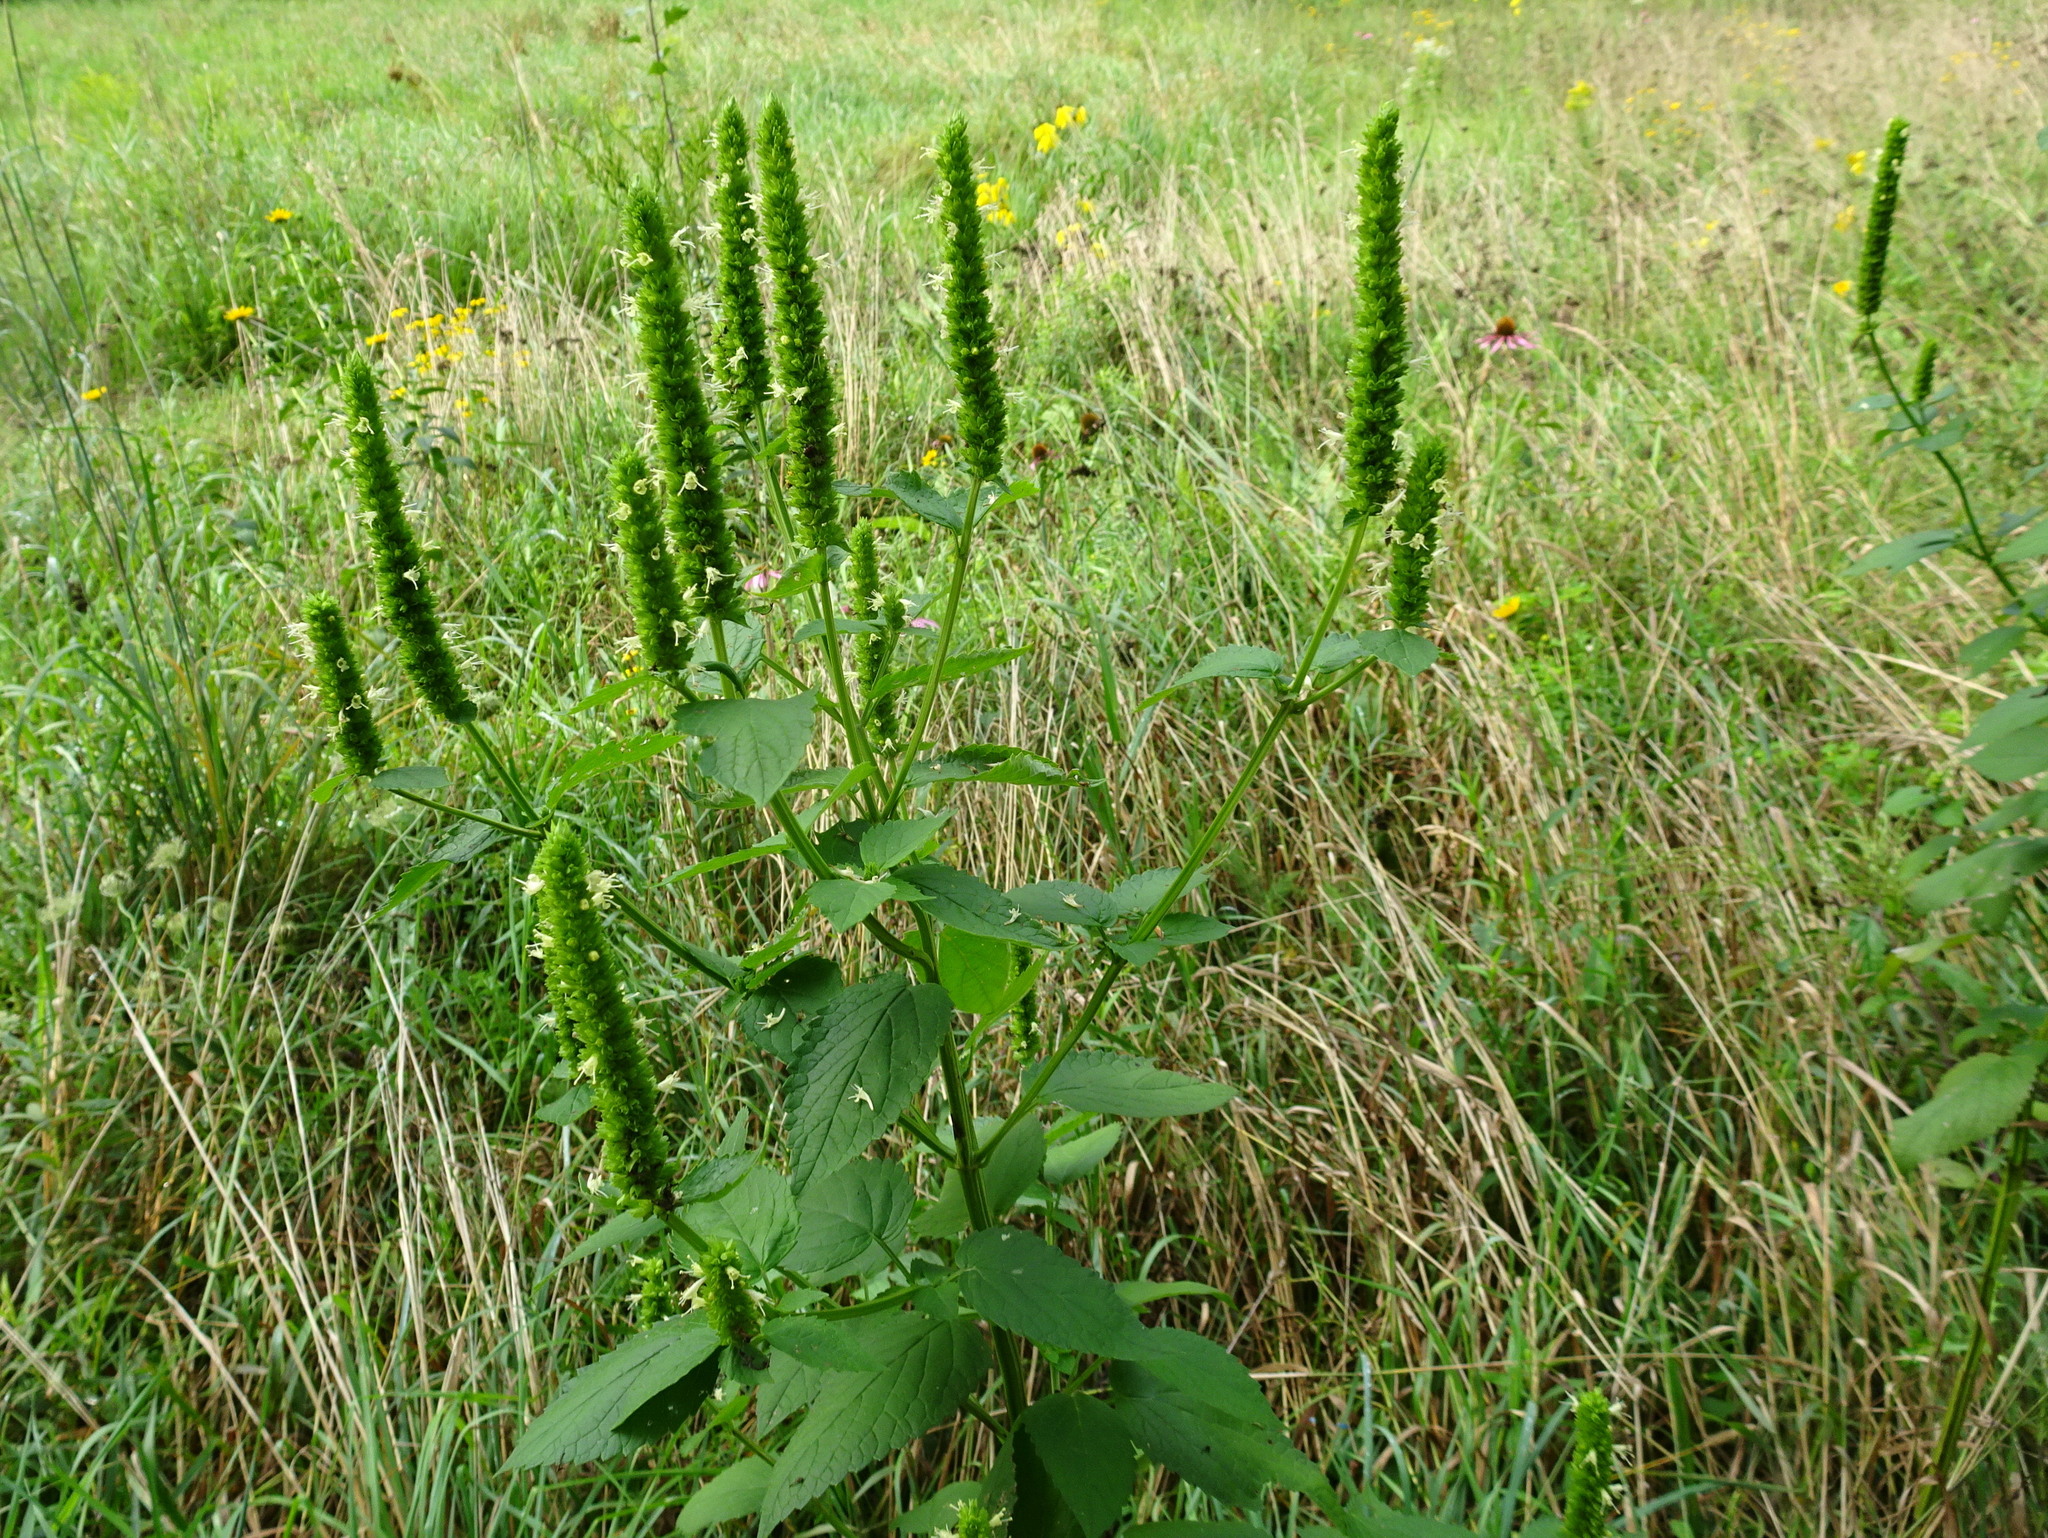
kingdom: Plantae
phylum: Tracheophyta
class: Magnoliopsida
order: Lamiales
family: Lamiaceae
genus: Agastache
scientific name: Agastache nepetoides
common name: Catnip giant hyssop
